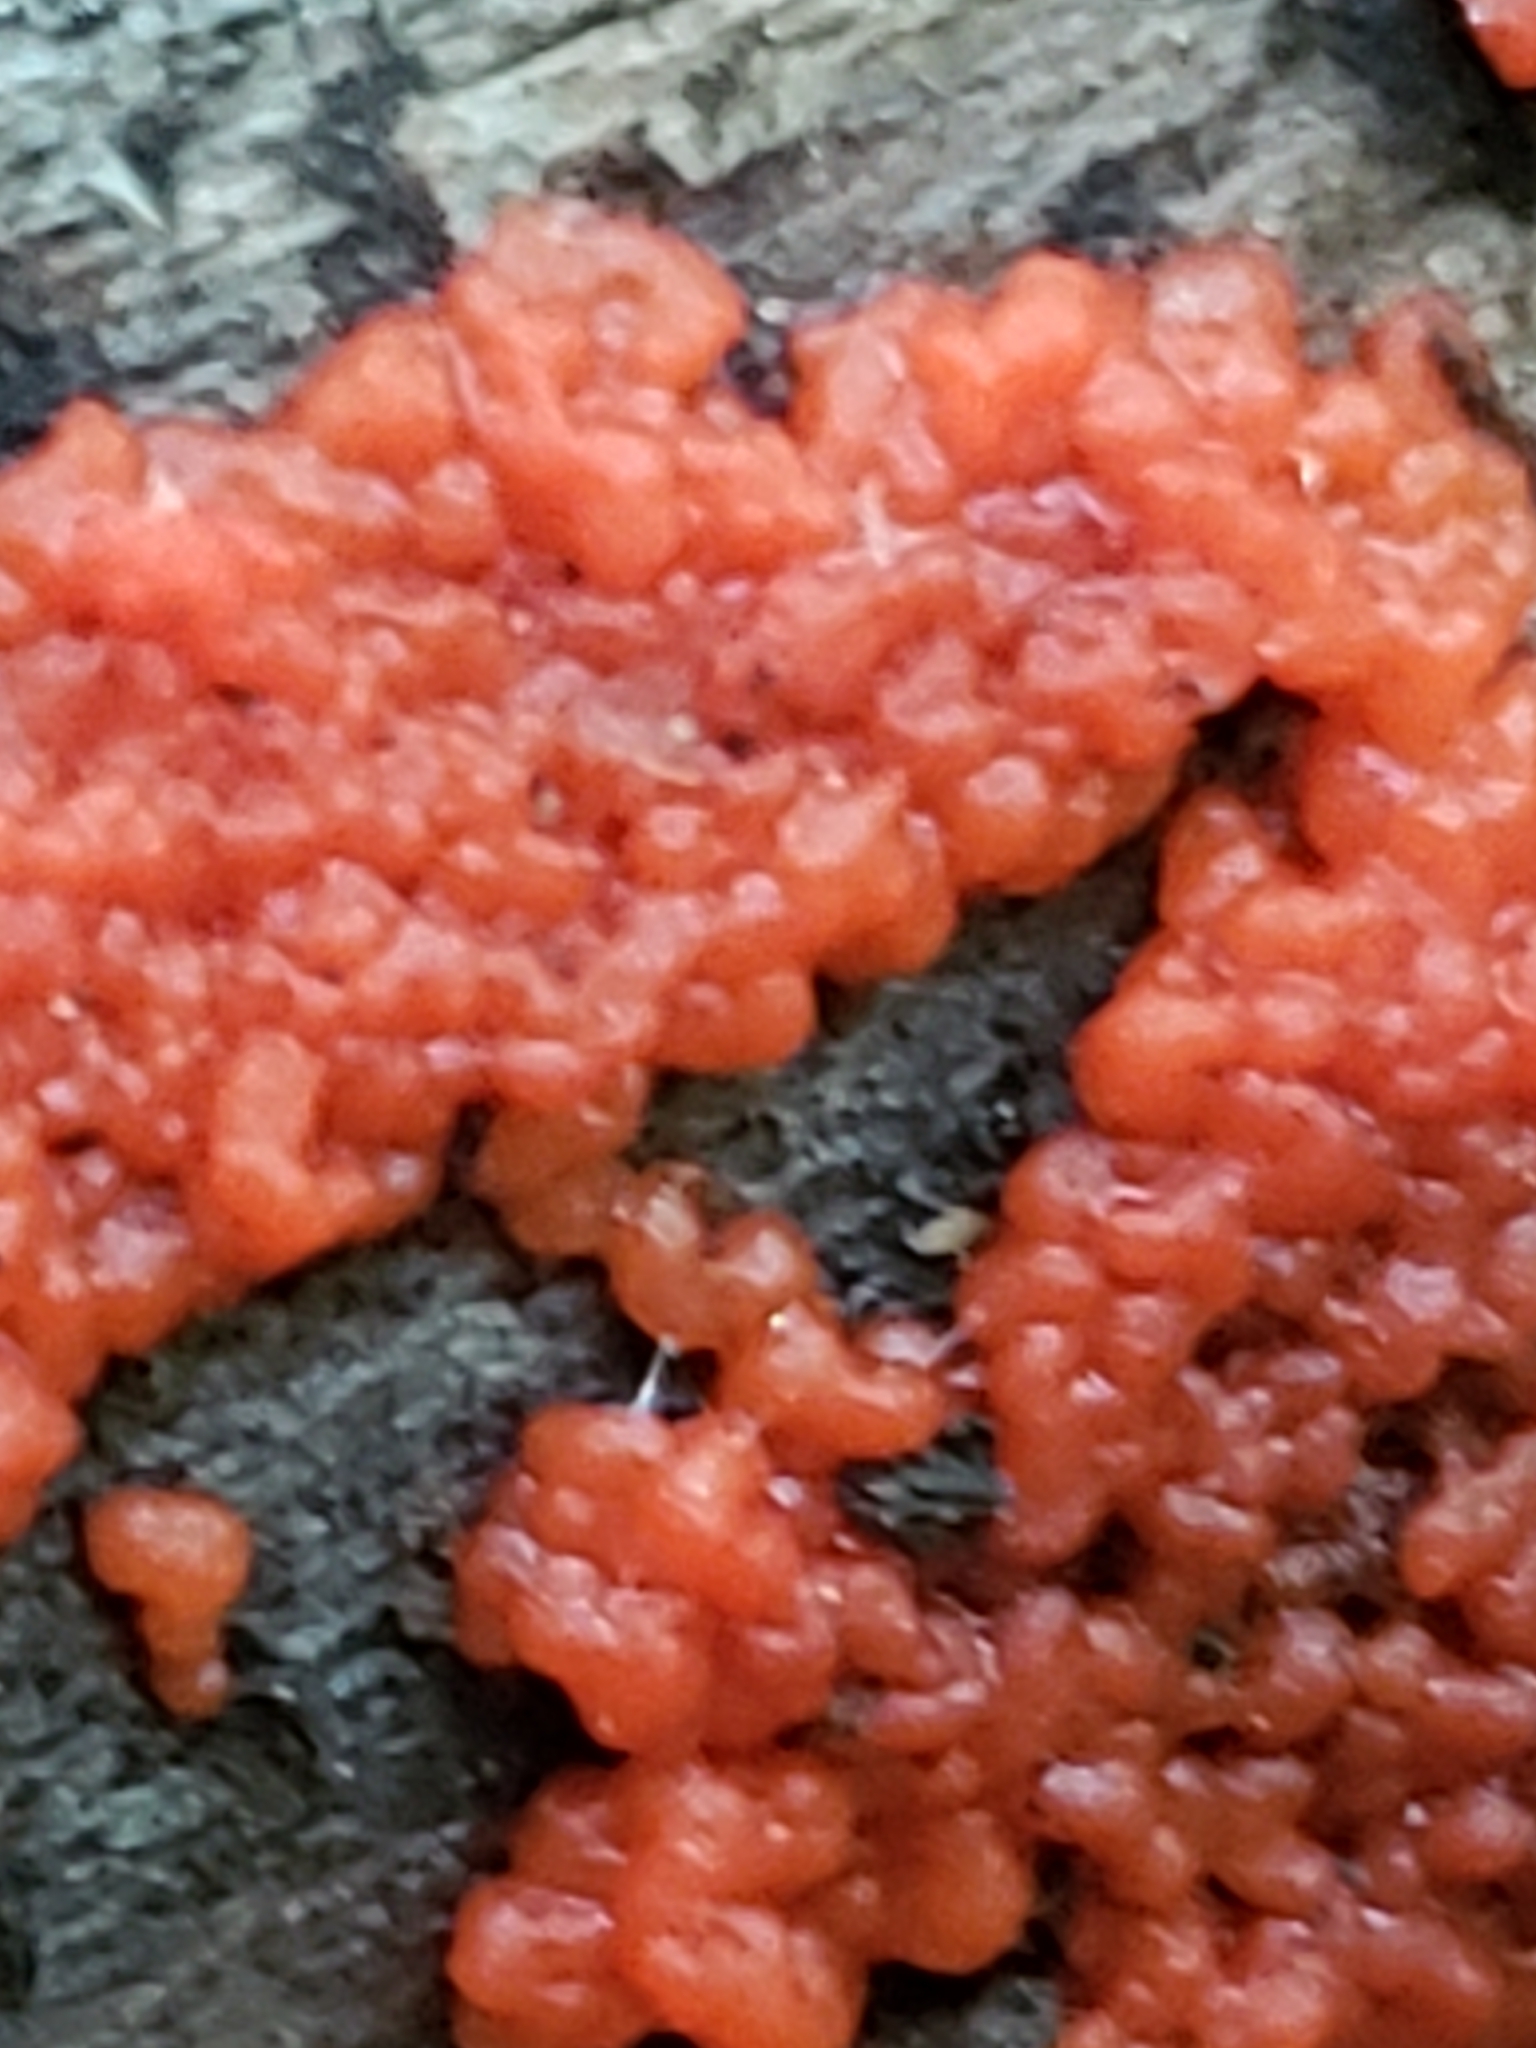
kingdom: Fungi
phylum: Basidiomycota
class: Agaricomycetes
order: Cantharellales
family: Tulasnellaceae
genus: Tulasnella
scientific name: Tulasnella aurantiaca
